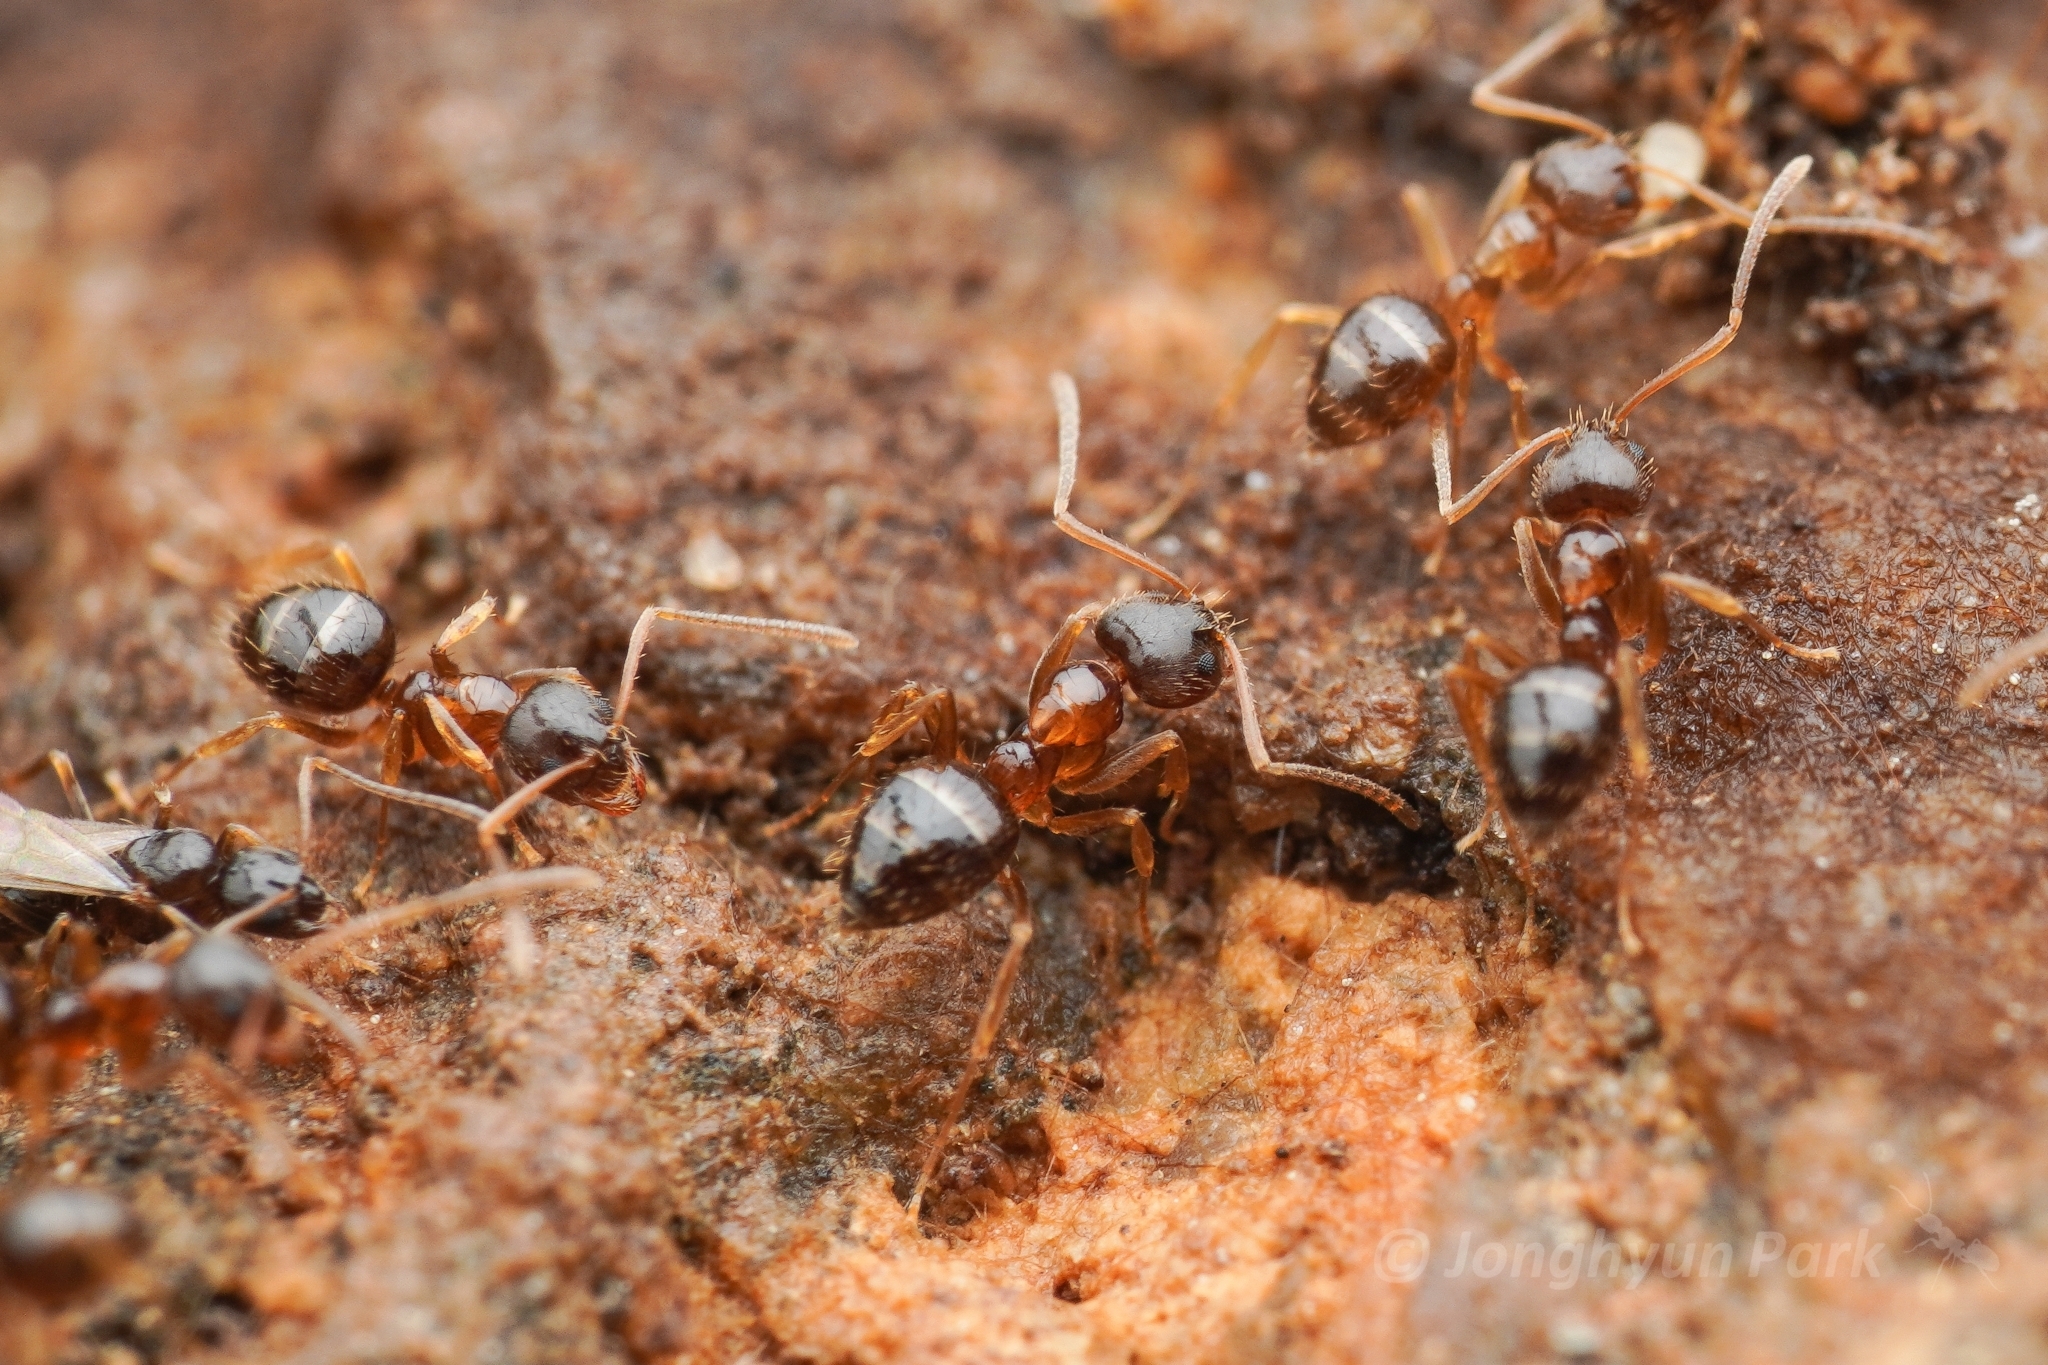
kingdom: Animalia
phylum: Arthropoda
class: Insecta
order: Hymenoptera
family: Formicidae
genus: Paratrechina
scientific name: Paratrechina flavipes
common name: Eastern asian formicine ant
